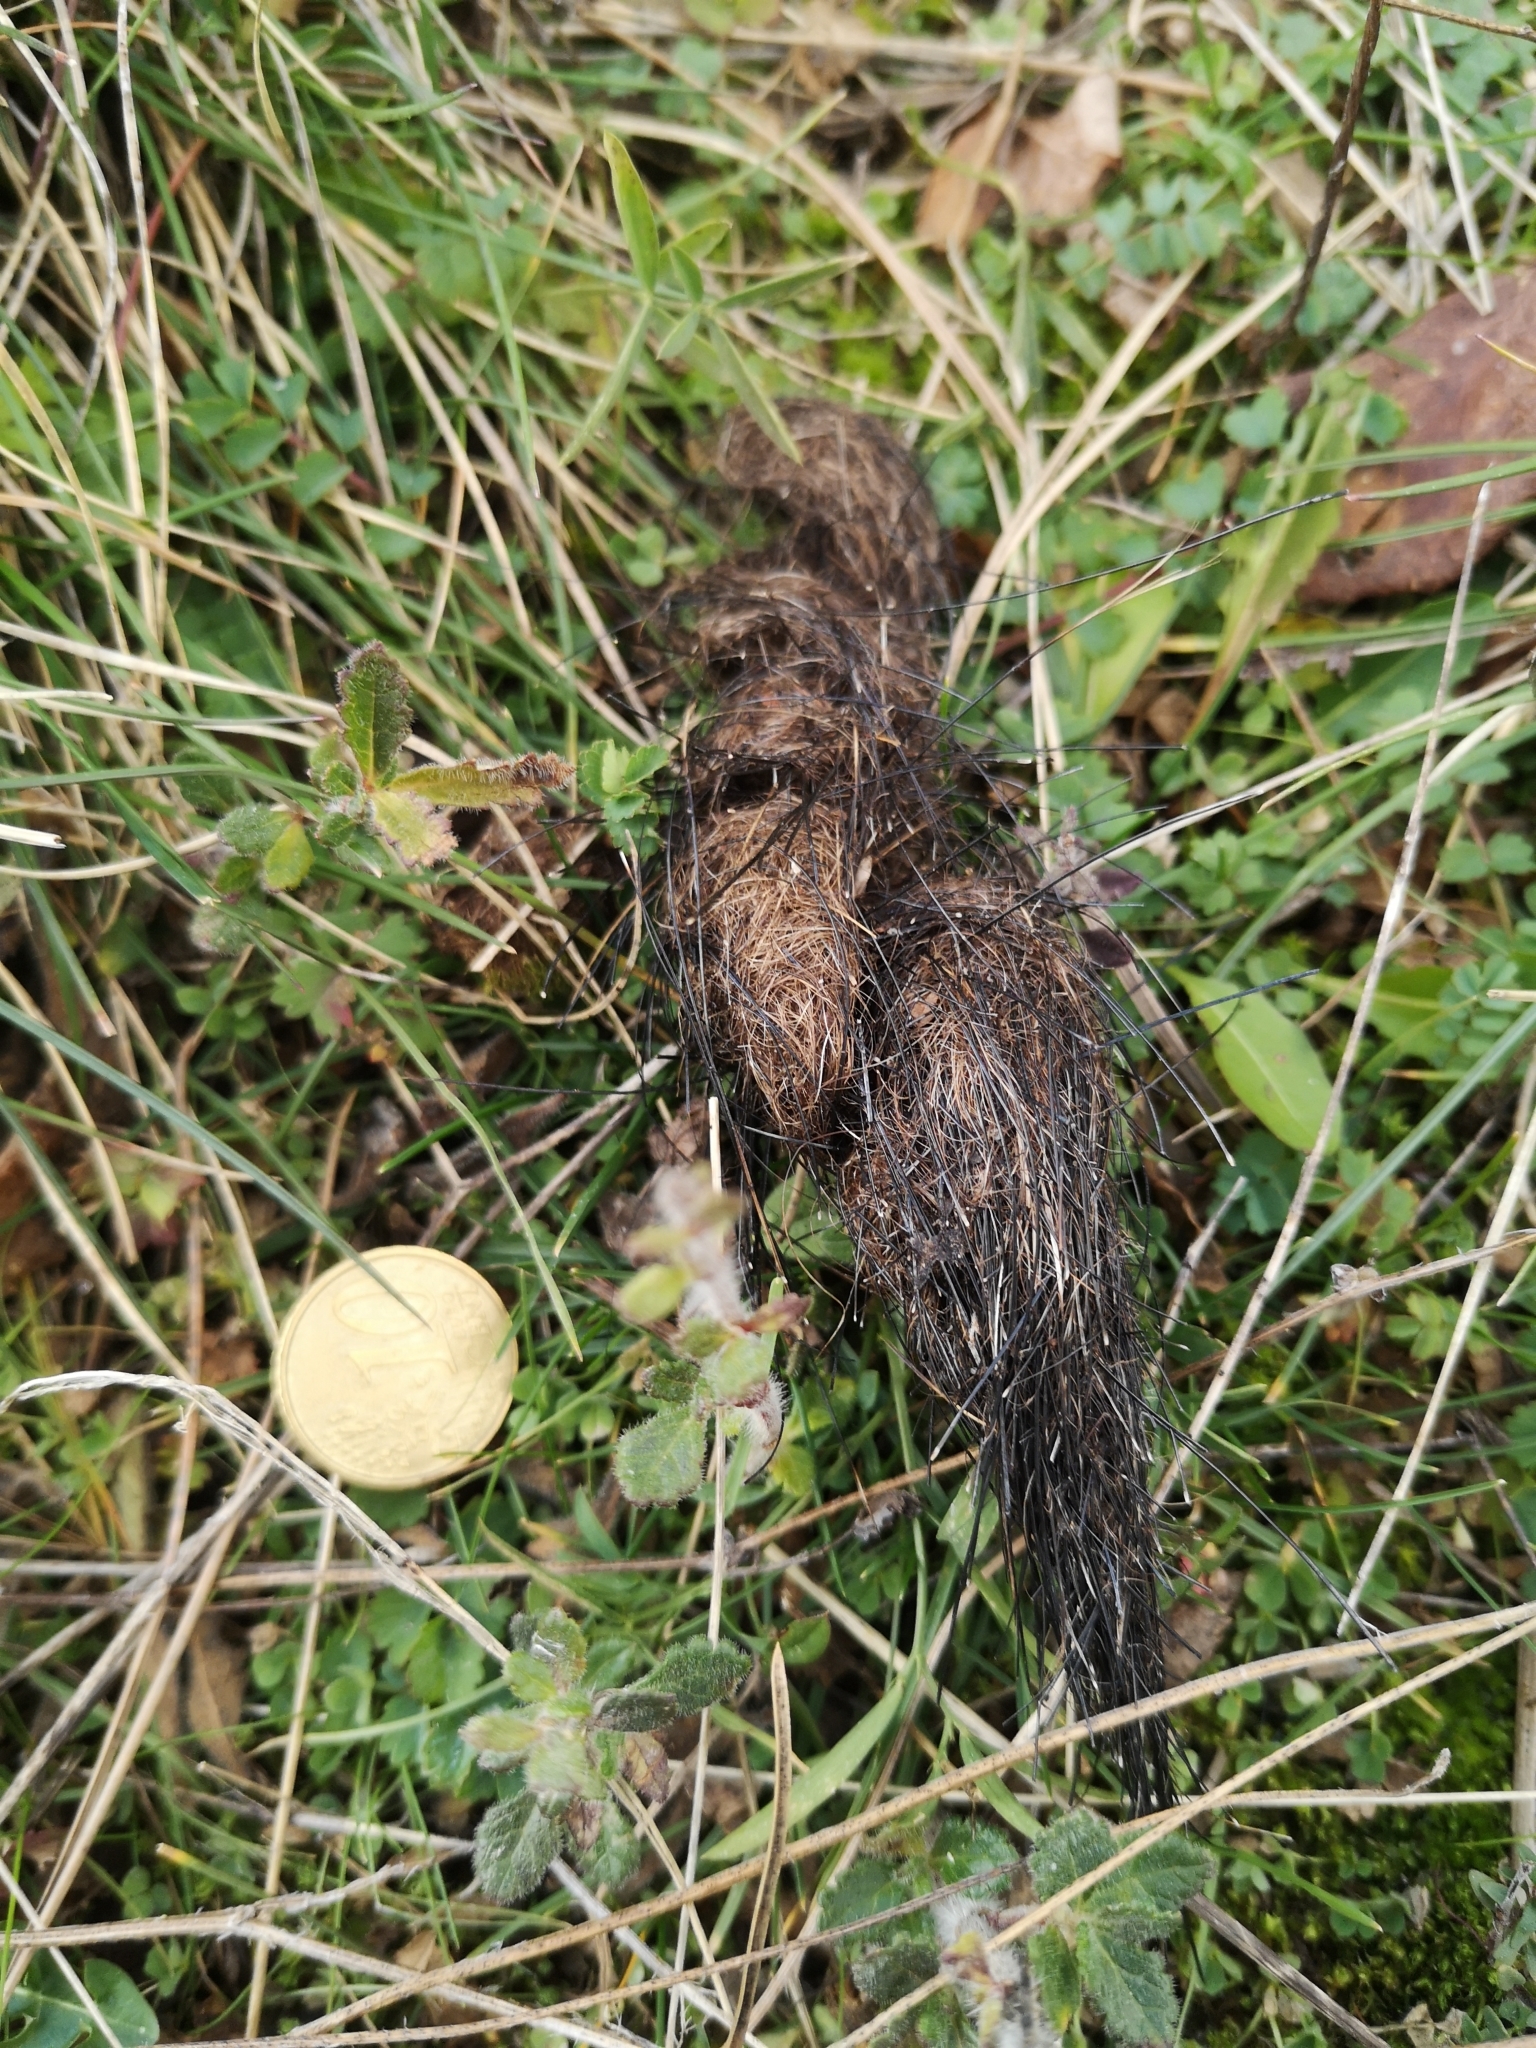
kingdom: Animalia
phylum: Chordata
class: Mammalia
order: Carnivora
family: Canidae
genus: Canis
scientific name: Canis lupus
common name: Gray wolf
